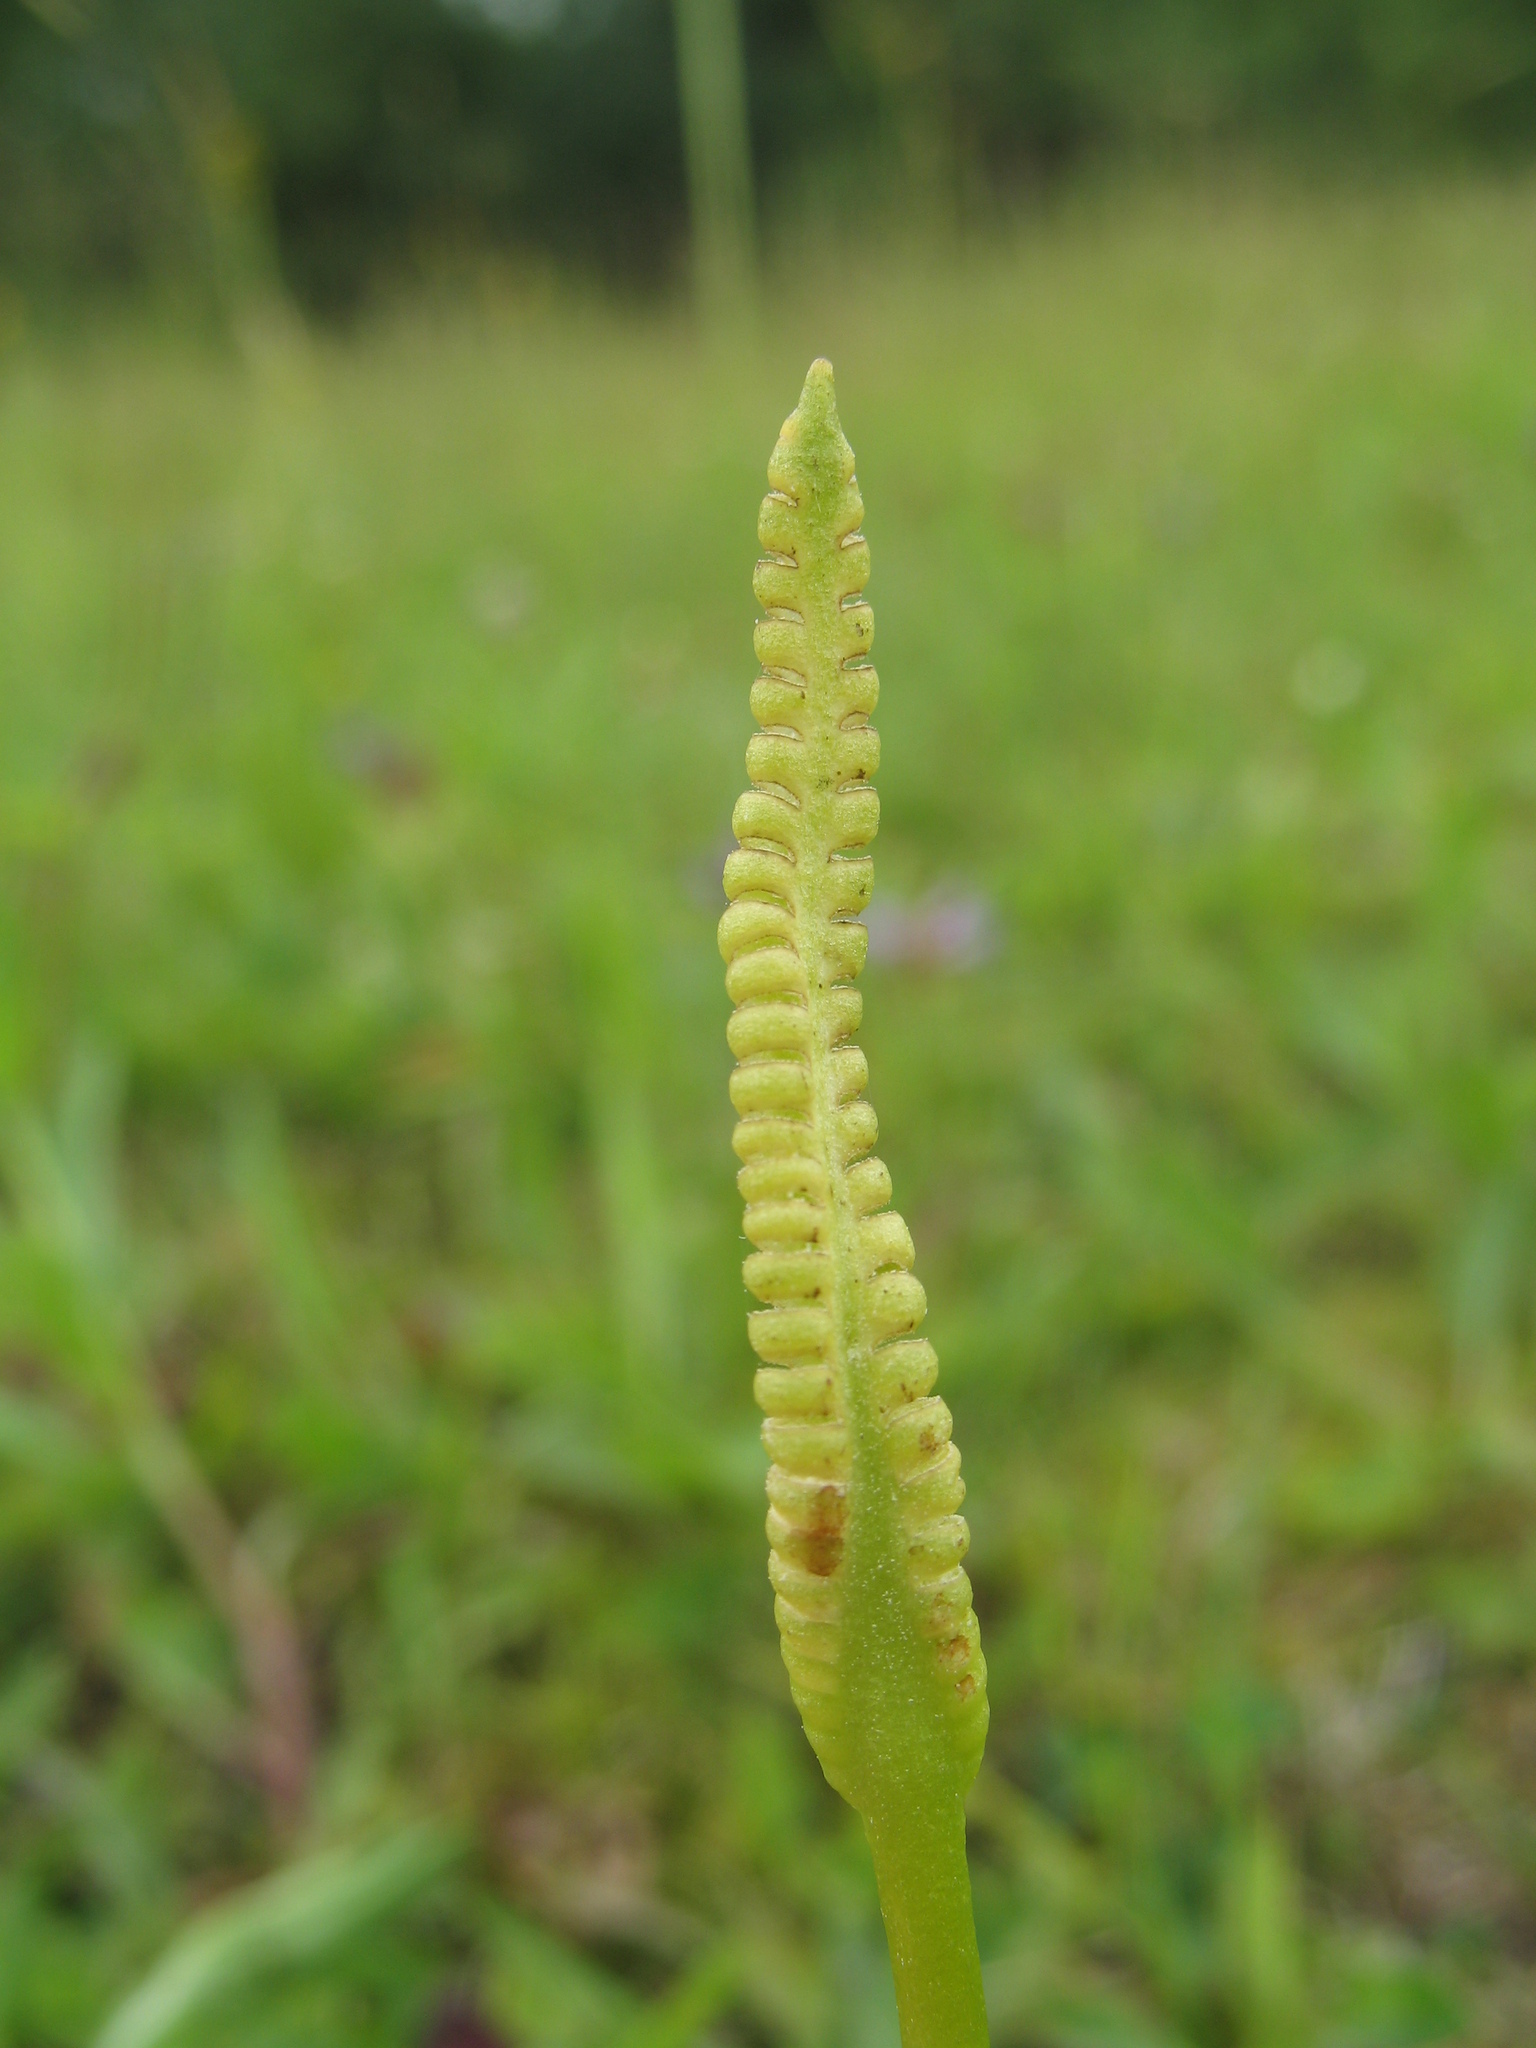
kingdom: Plantae
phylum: Tracheophyta
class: Polypodiopsida
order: Ophioglossales
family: Ophioglossaceae
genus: Ophioglossum
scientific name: Ophioglossum vulgatum
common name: Adder's-tongue
